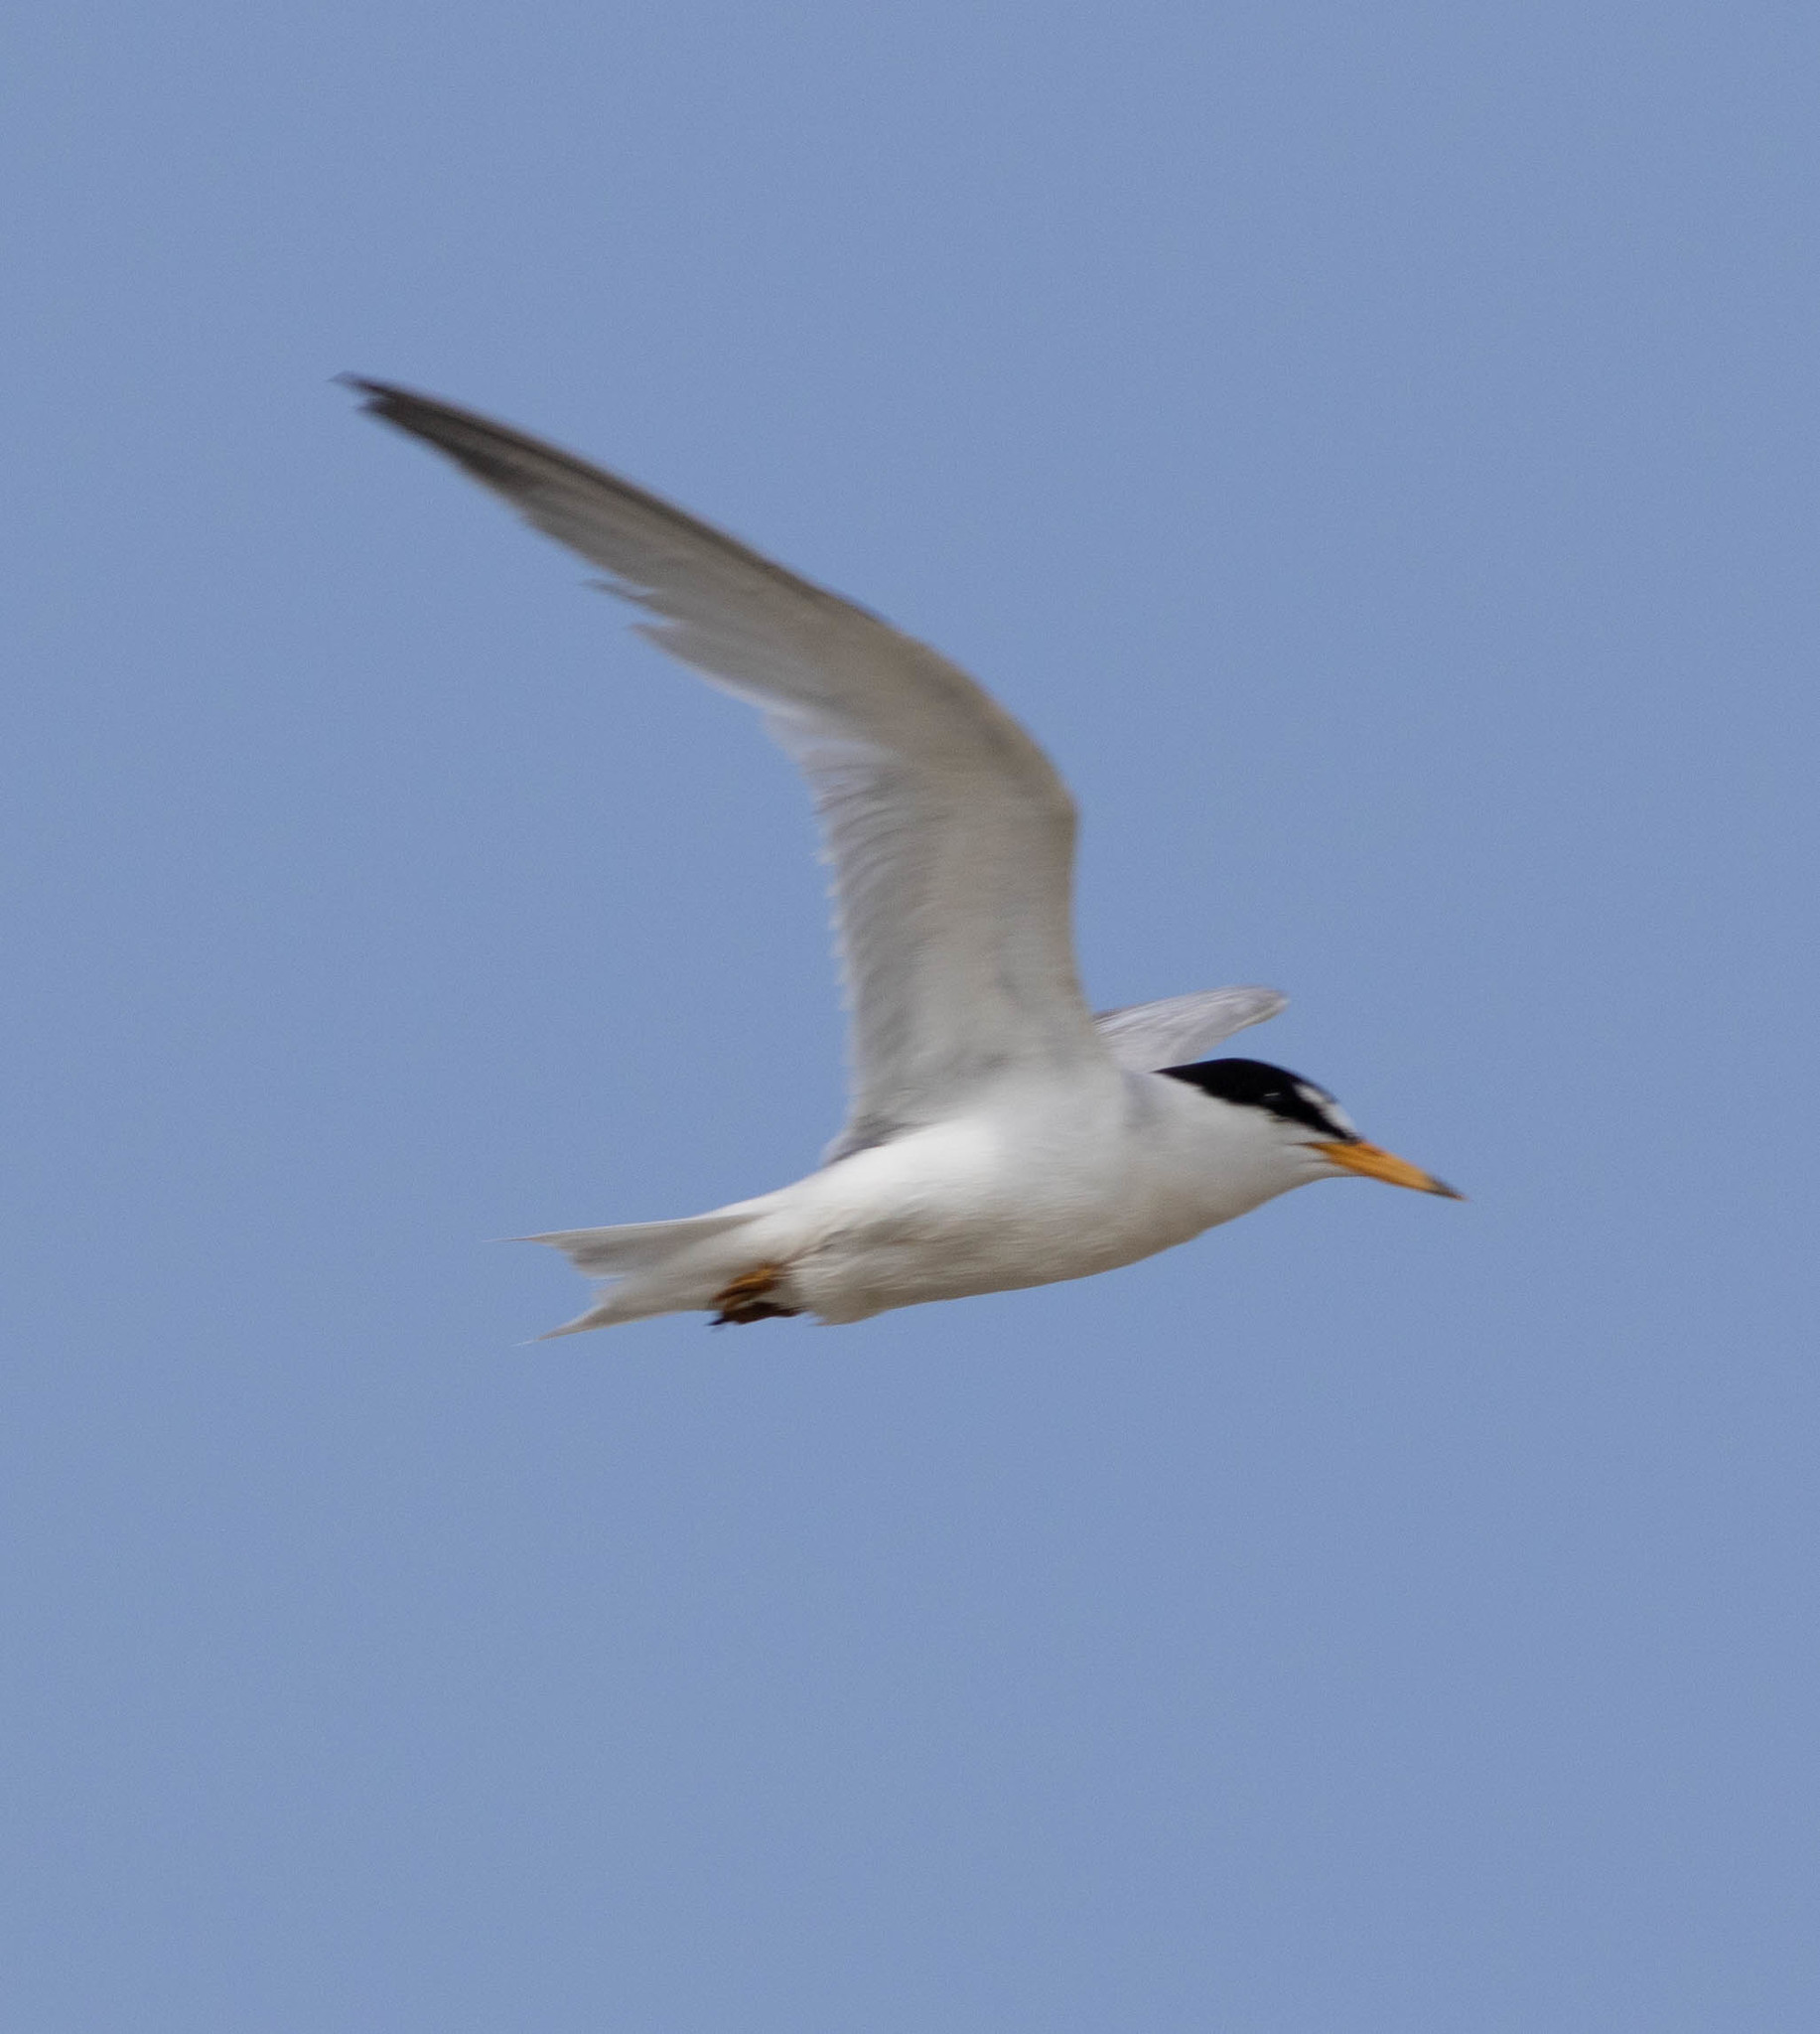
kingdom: Animalia
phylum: Chordata
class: Aves
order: Charadriiformes
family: Laridae
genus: Sternula
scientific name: Sternula antillarum
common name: Least tern
